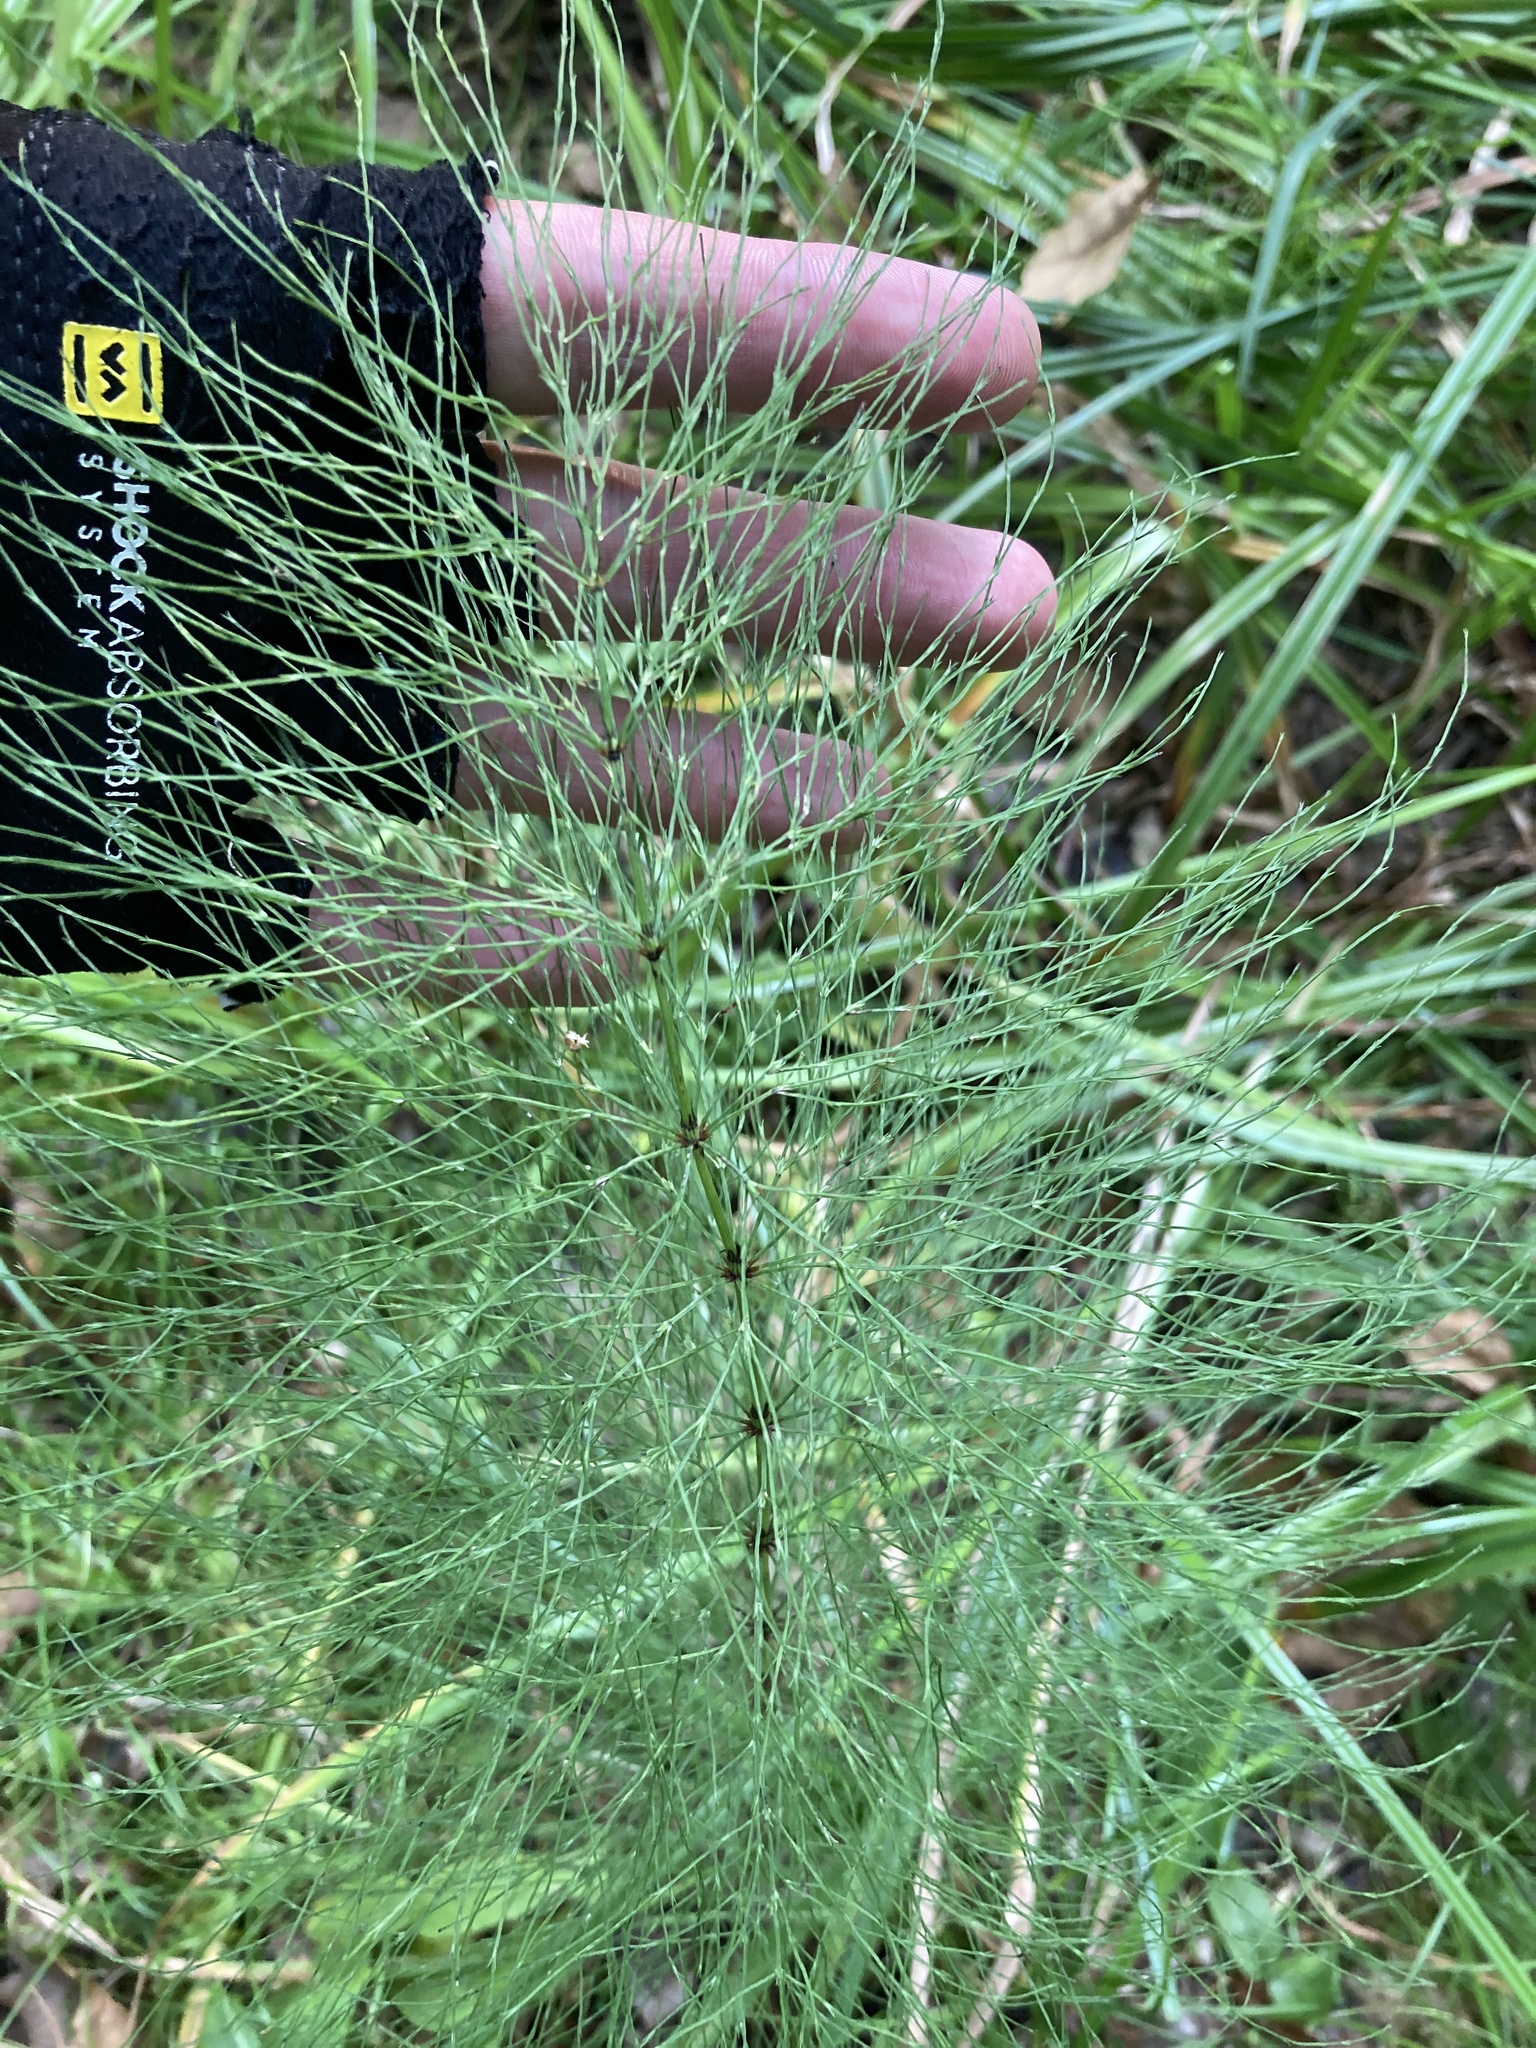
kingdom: Plantae
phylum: Tracheophyta
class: Polypodiopsida
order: Equisetales
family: Equisetaceae
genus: Equisetum
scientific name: Equisetum sylvaticum
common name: Wood horsetail
